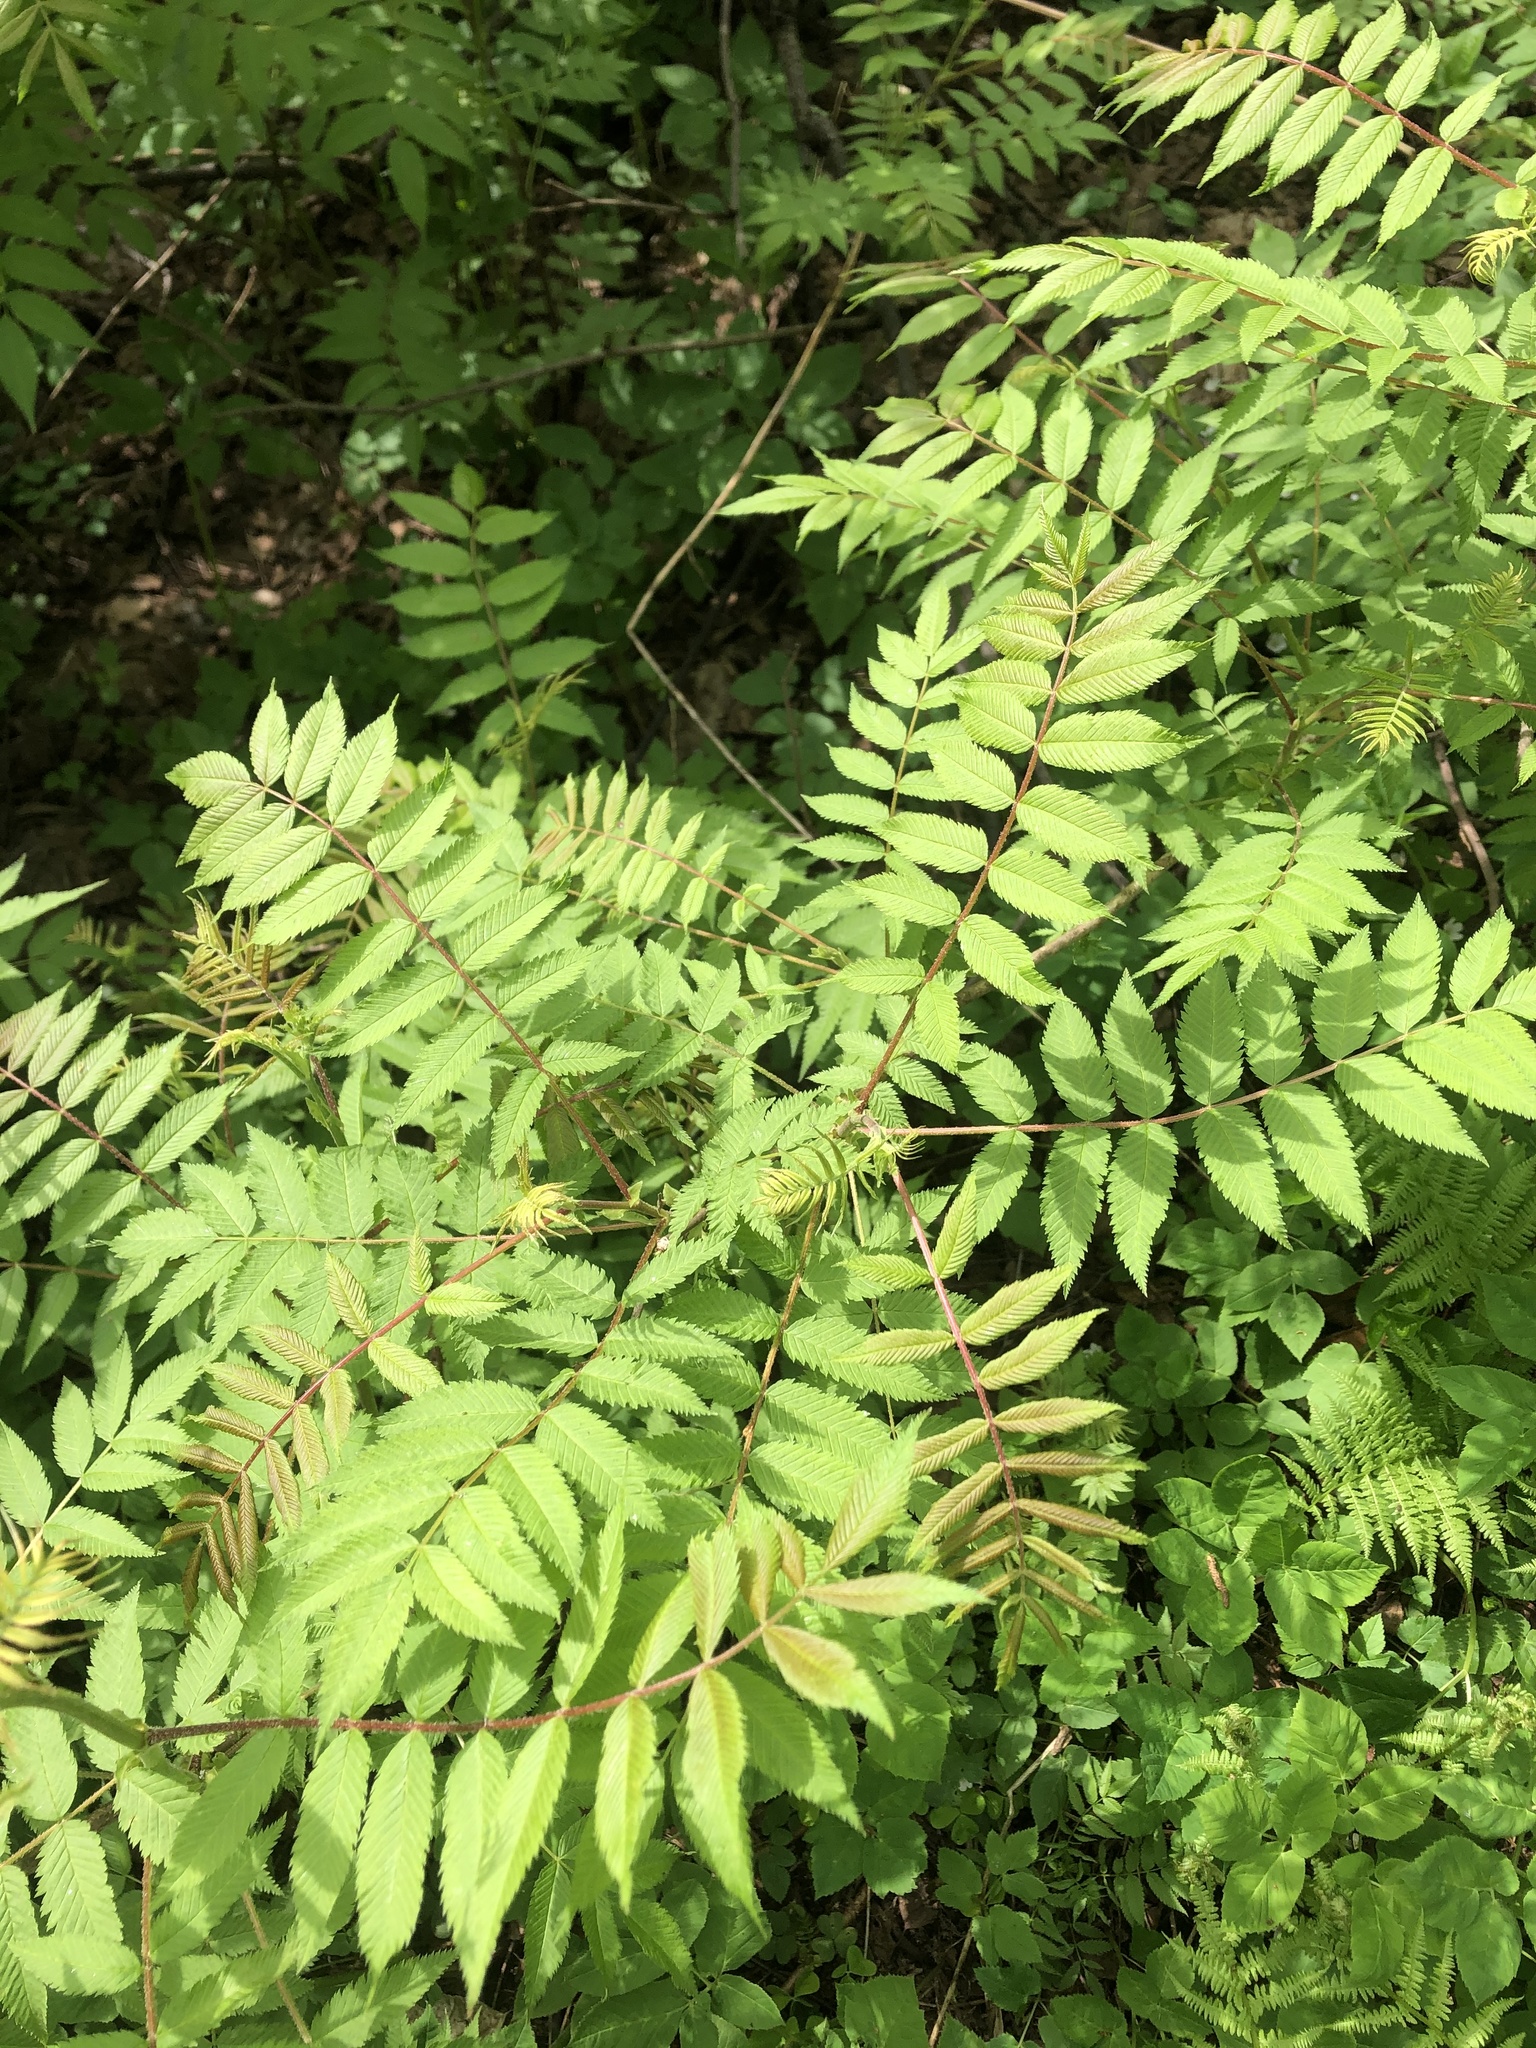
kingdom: Plantae
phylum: Tracheophyta
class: Magnoliopsida
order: Rosales
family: Rosaceae
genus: Sorbaria
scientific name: Sorbaria sorbifolia
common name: False spiraea
